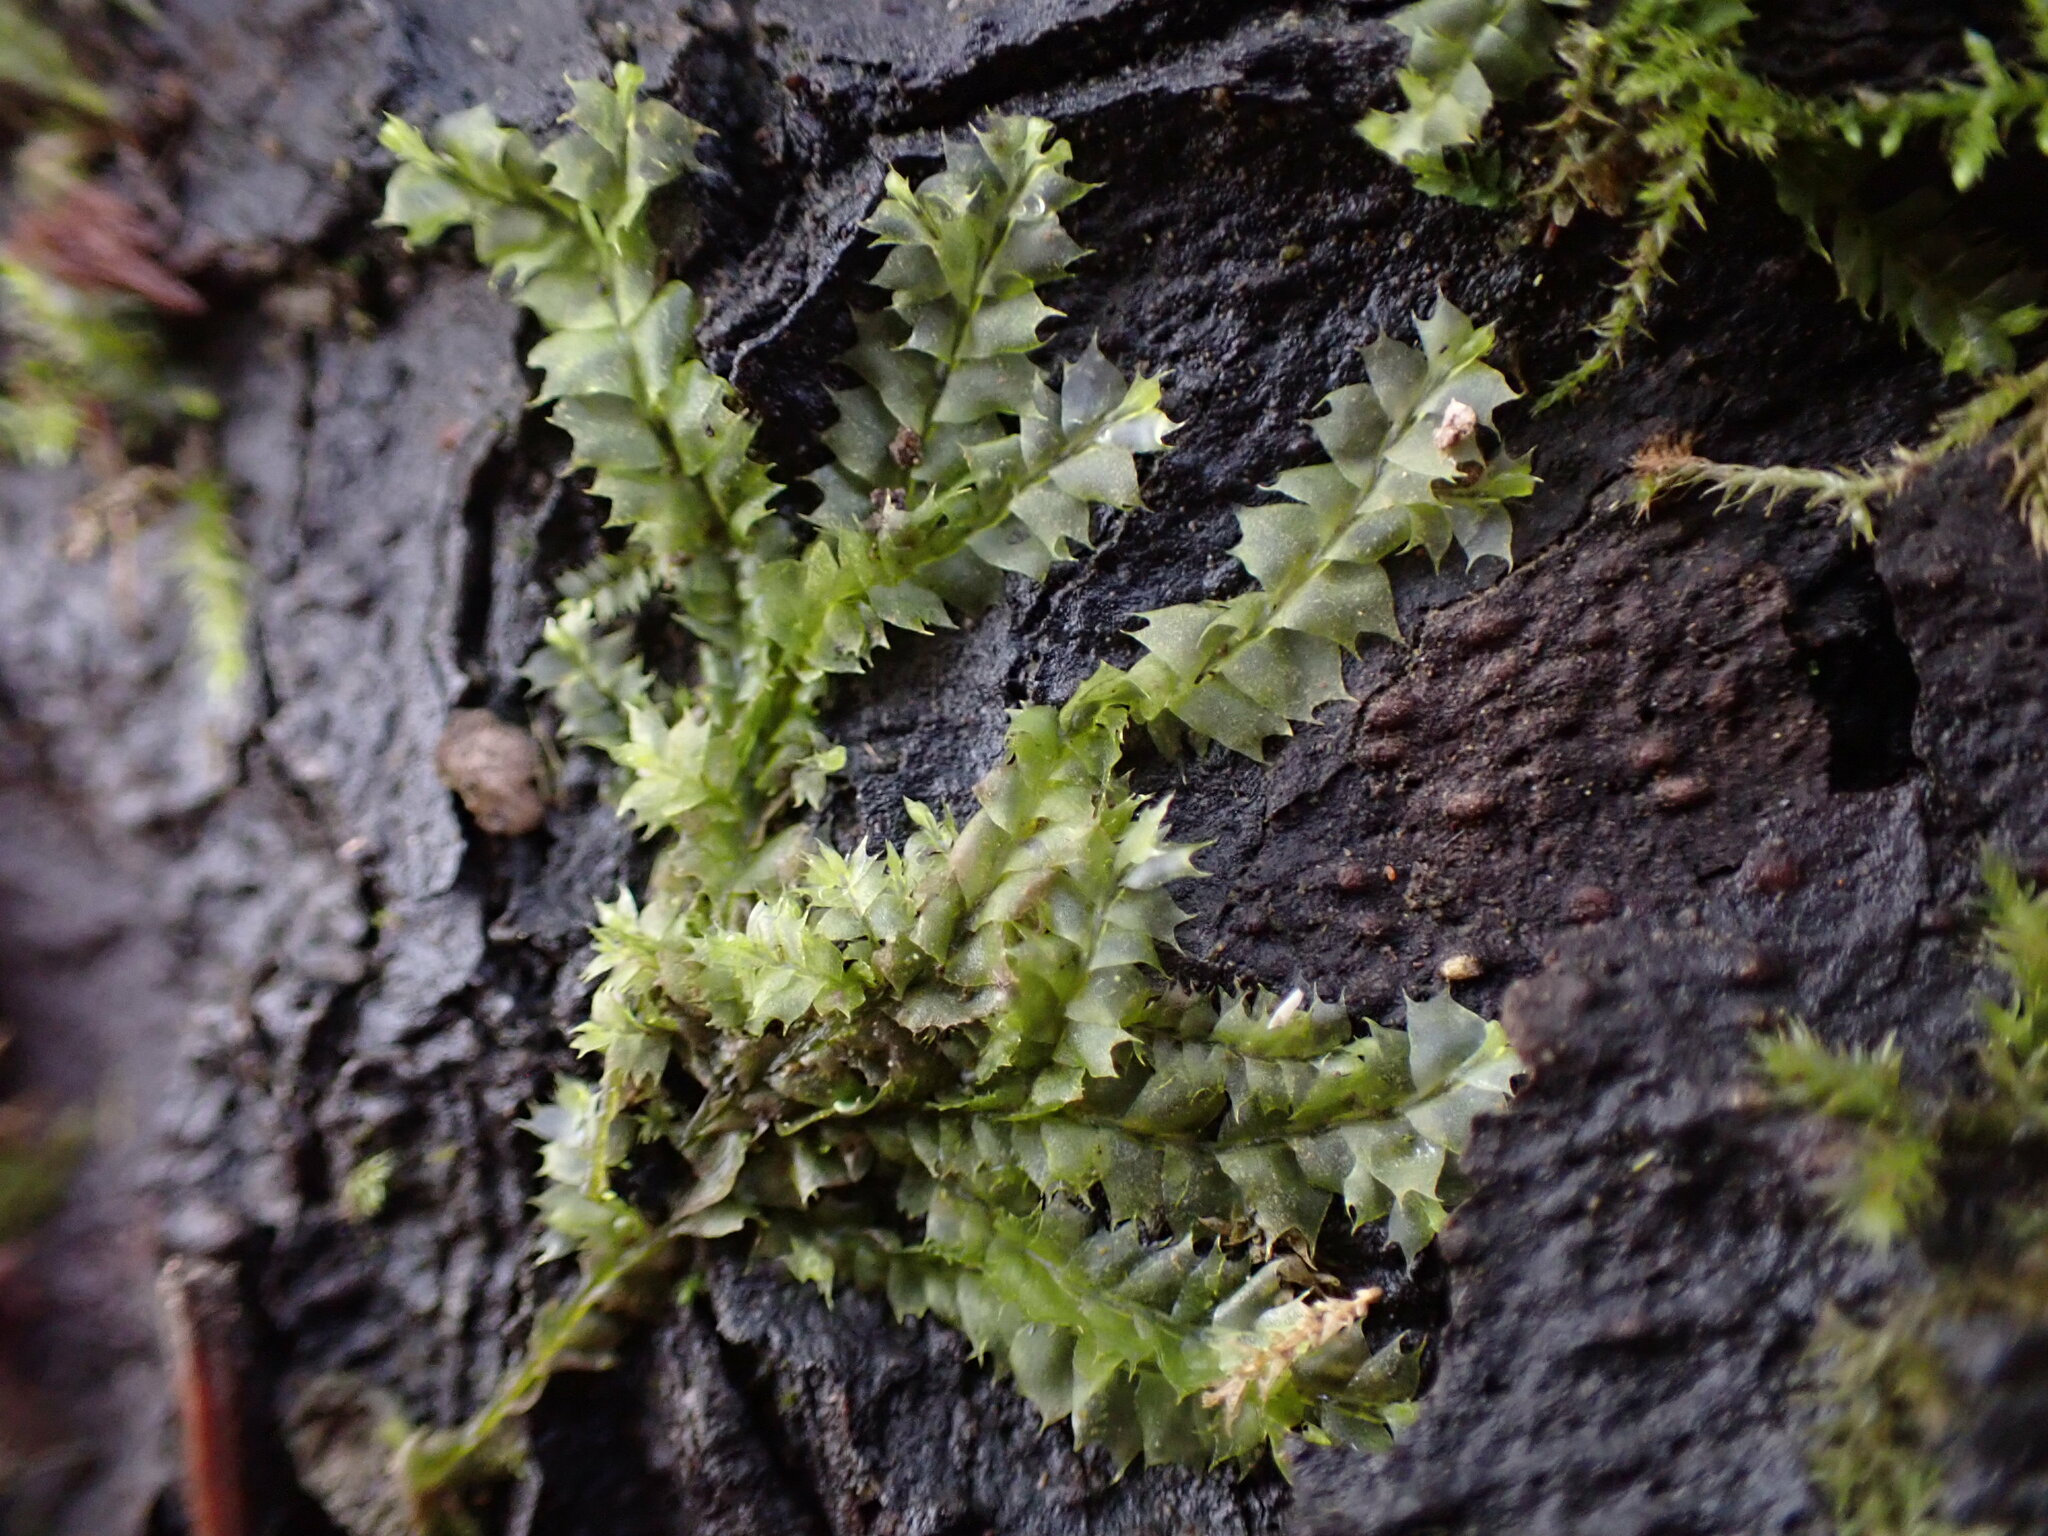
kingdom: Plantae
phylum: Marchantiophyta
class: Jungermanniopsida
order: Jungermanniales
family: Lophocoleaceae
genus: Lophocolea
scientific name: Lophocolea bidentata
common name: Bifid crestwort
